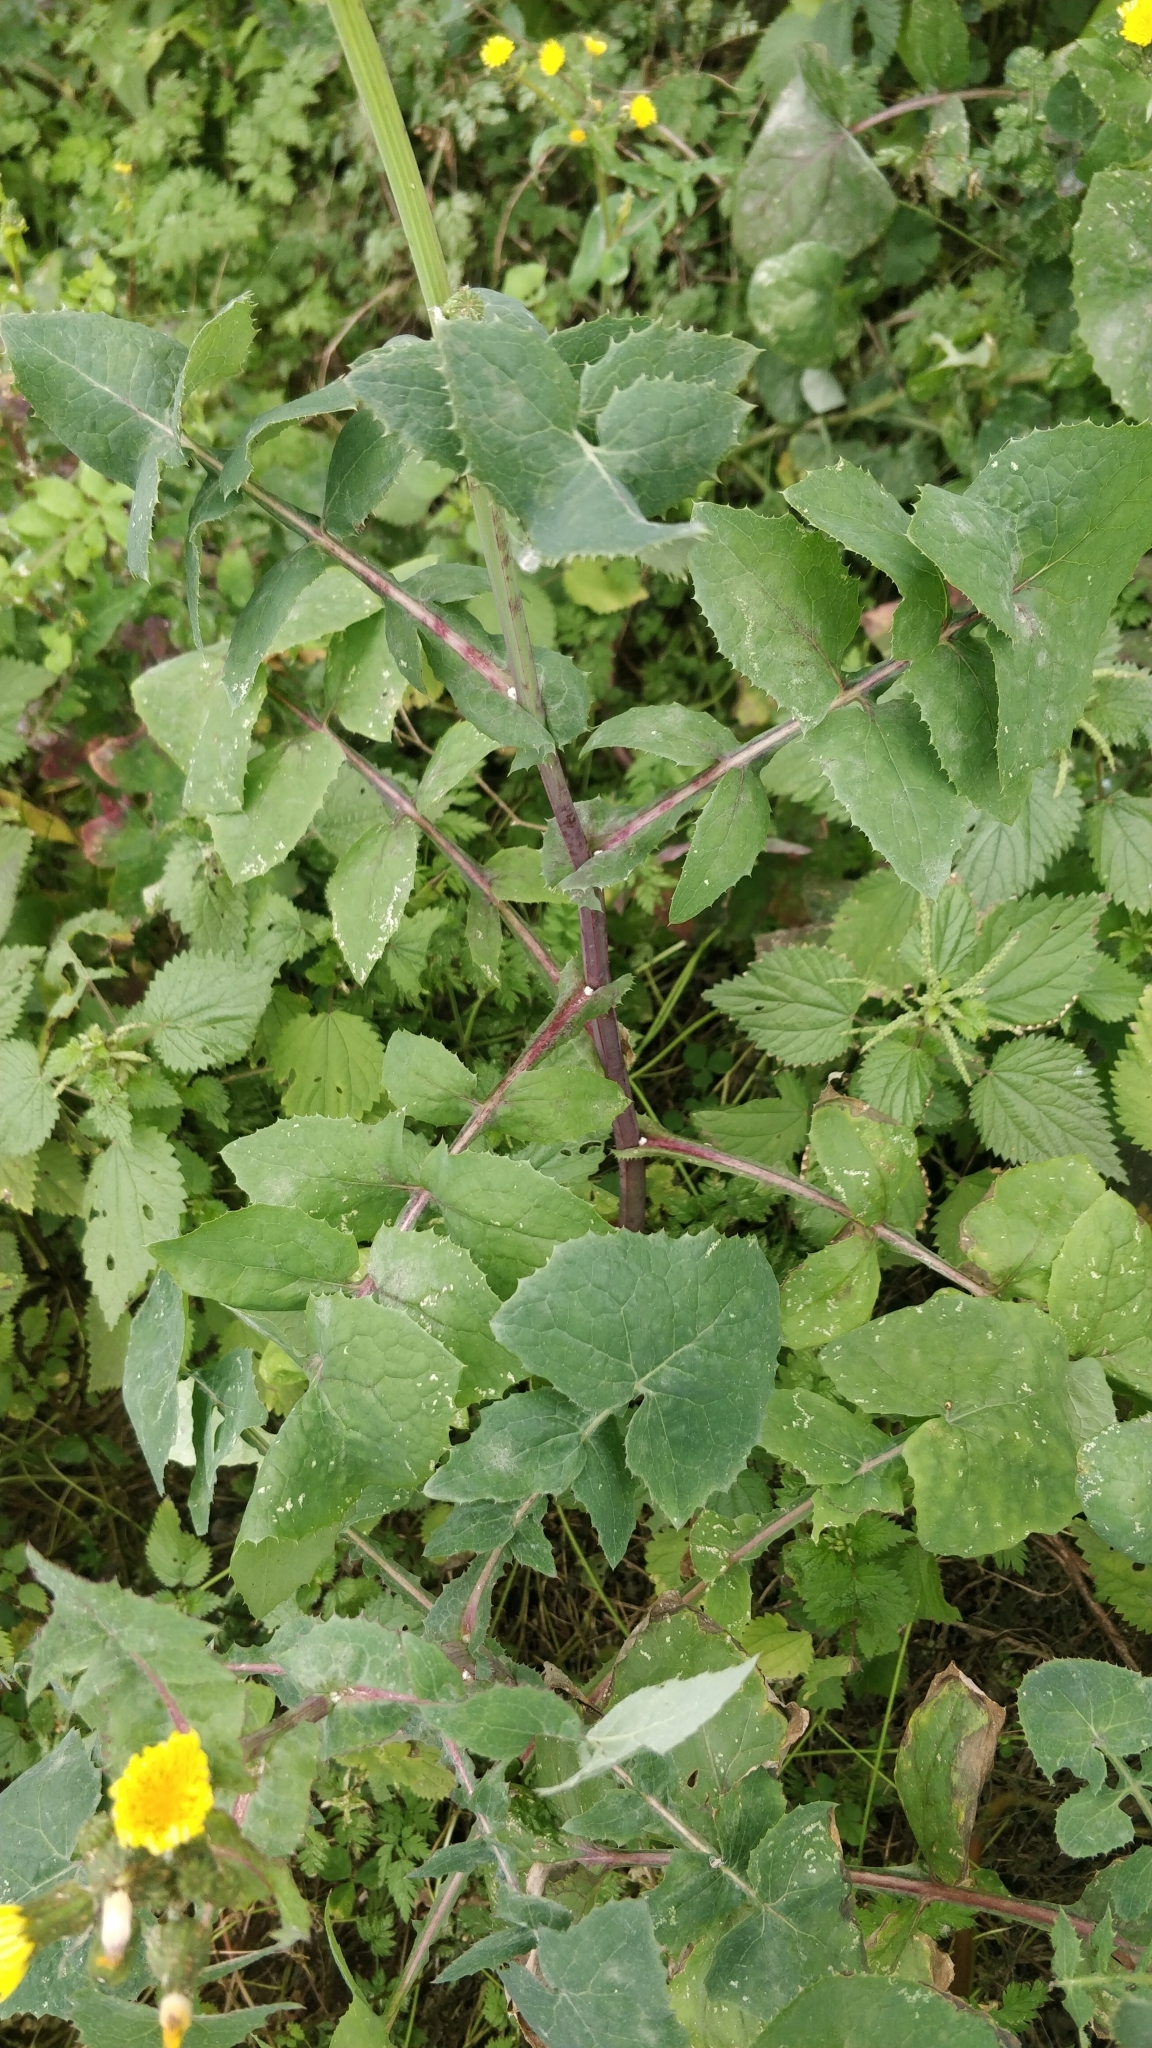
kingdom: Plantae
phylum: Tracheophyta
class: Magnoliopsida
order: Asterales
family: Asteraceae
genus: Sonchus
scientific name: Sonchus oleraceus
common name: Common sowthistle
